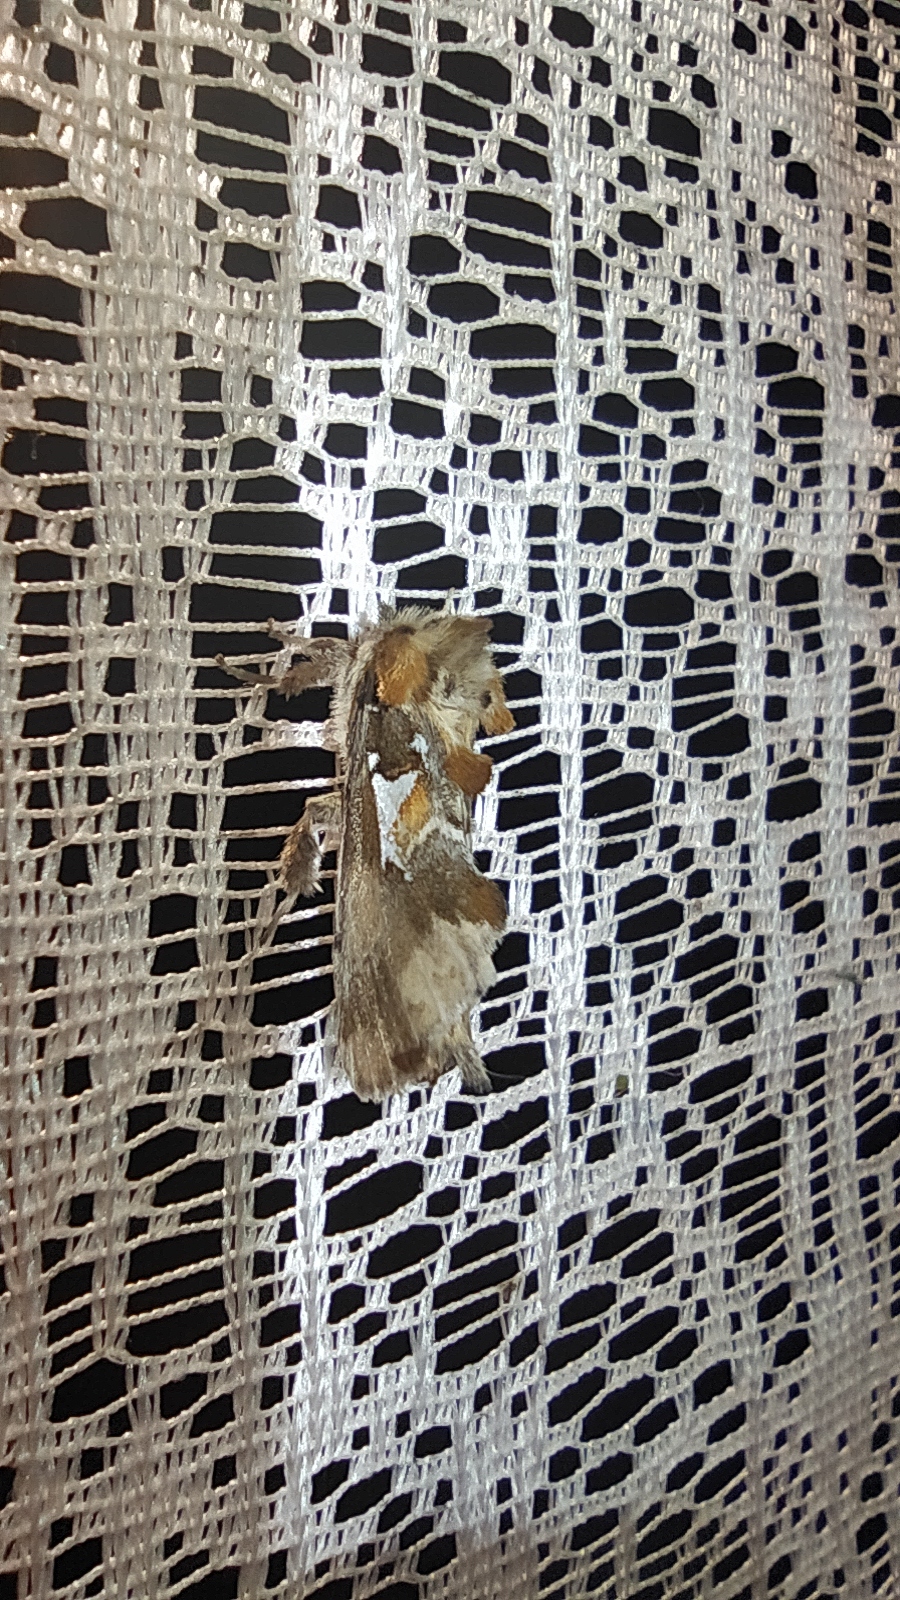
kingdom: Animalia
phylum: Arthropoda
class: Insecta
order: Lepidoptera
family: Notodontidae
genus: Spatalia
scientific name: Spatalia argentina
